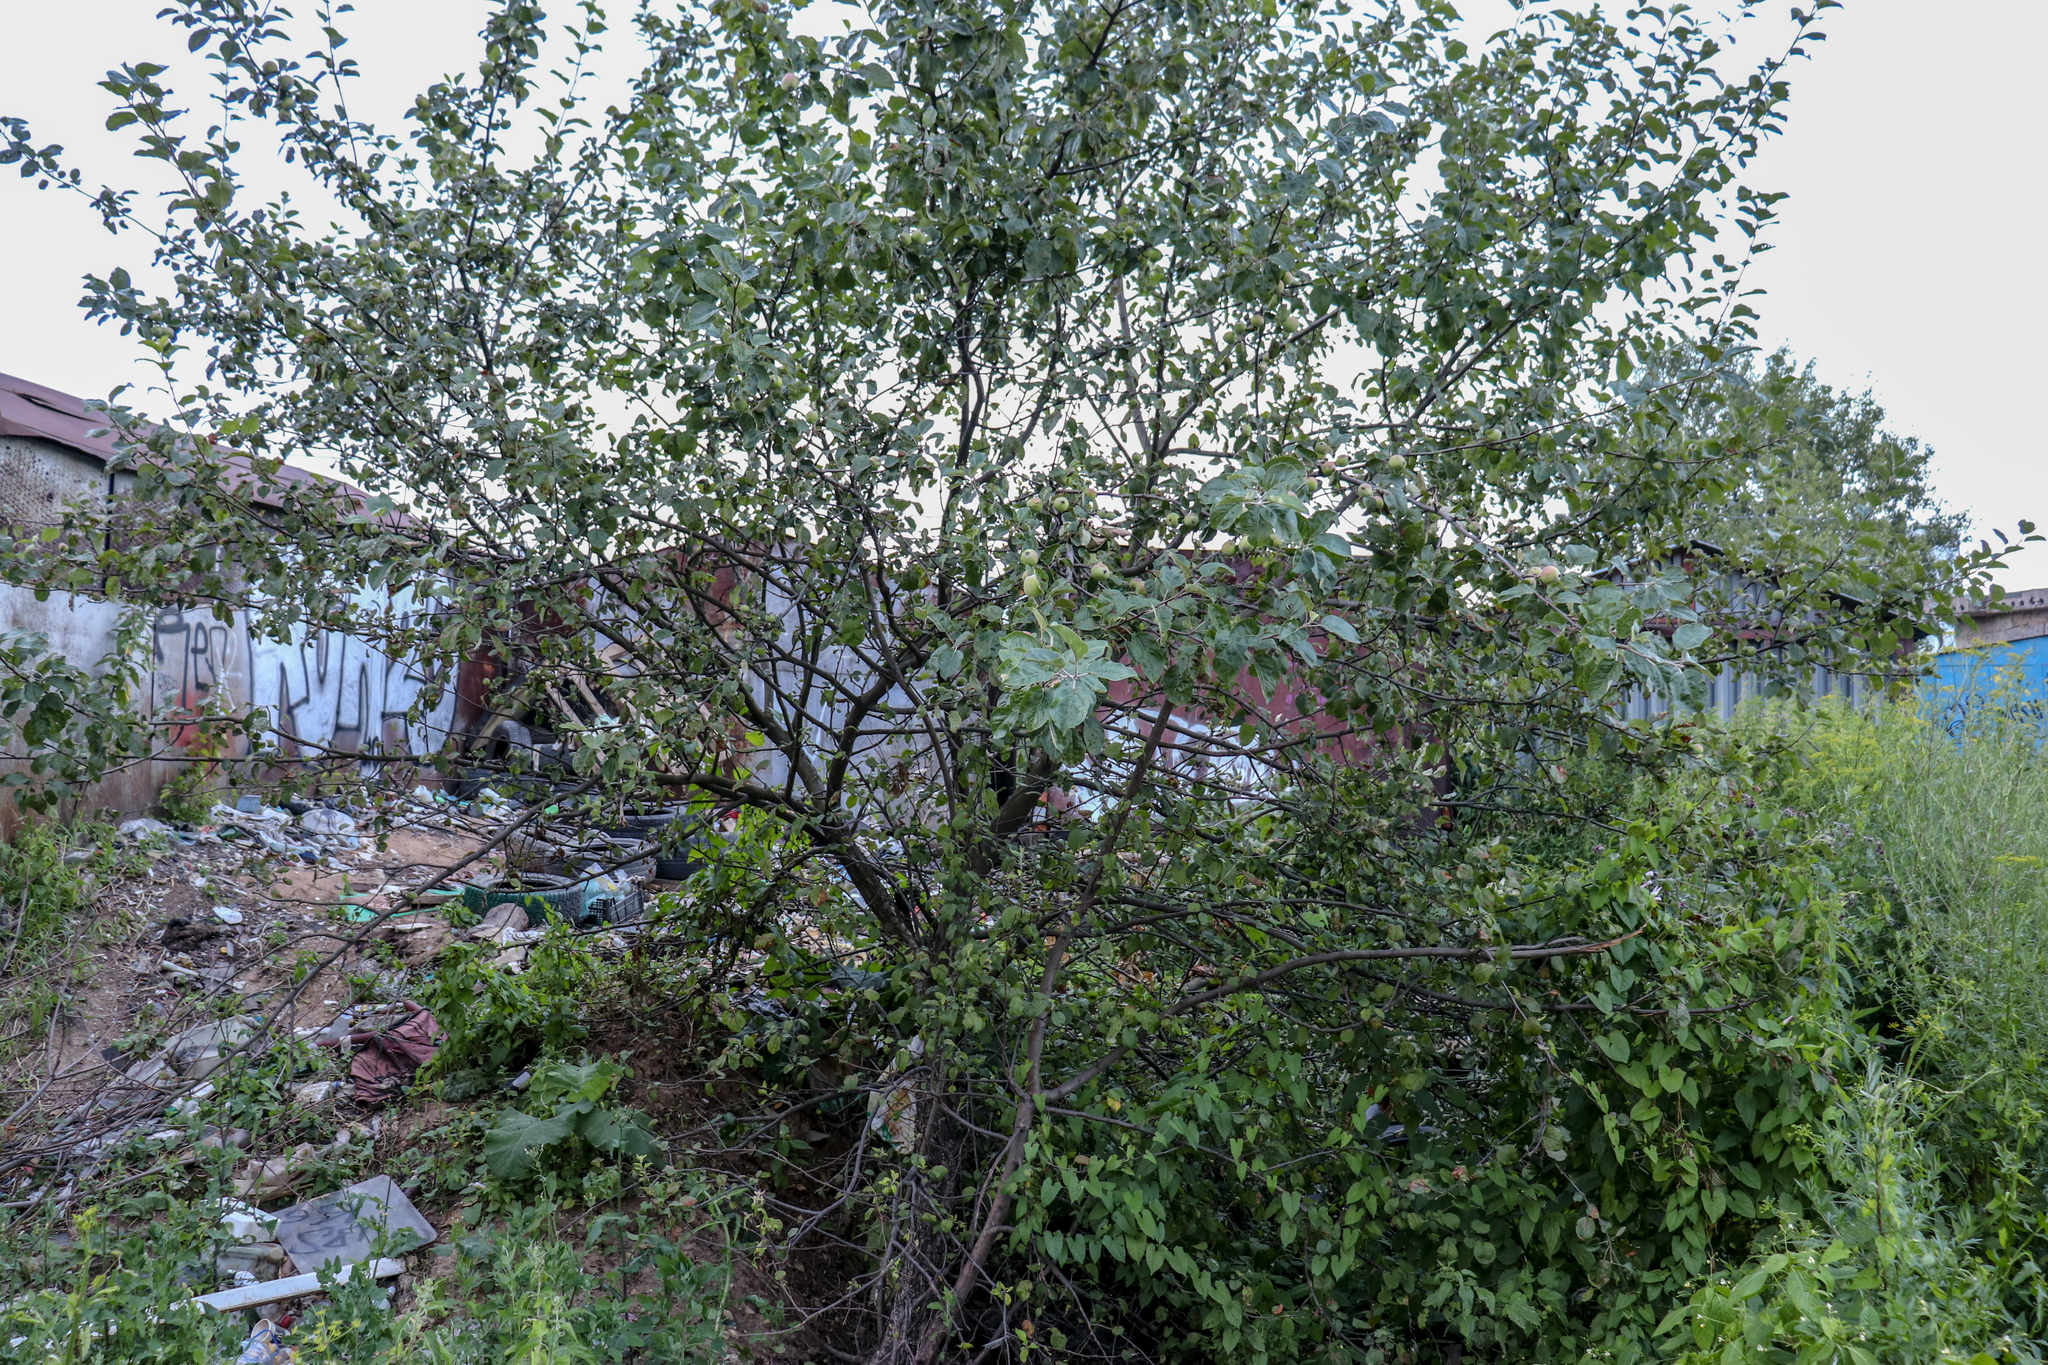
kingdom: Plantae
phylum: Tracheophyta
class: Magnoliopsida
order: Rosales
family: Rosaceae
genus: Malus
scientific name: Malus domestica
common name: Apple
